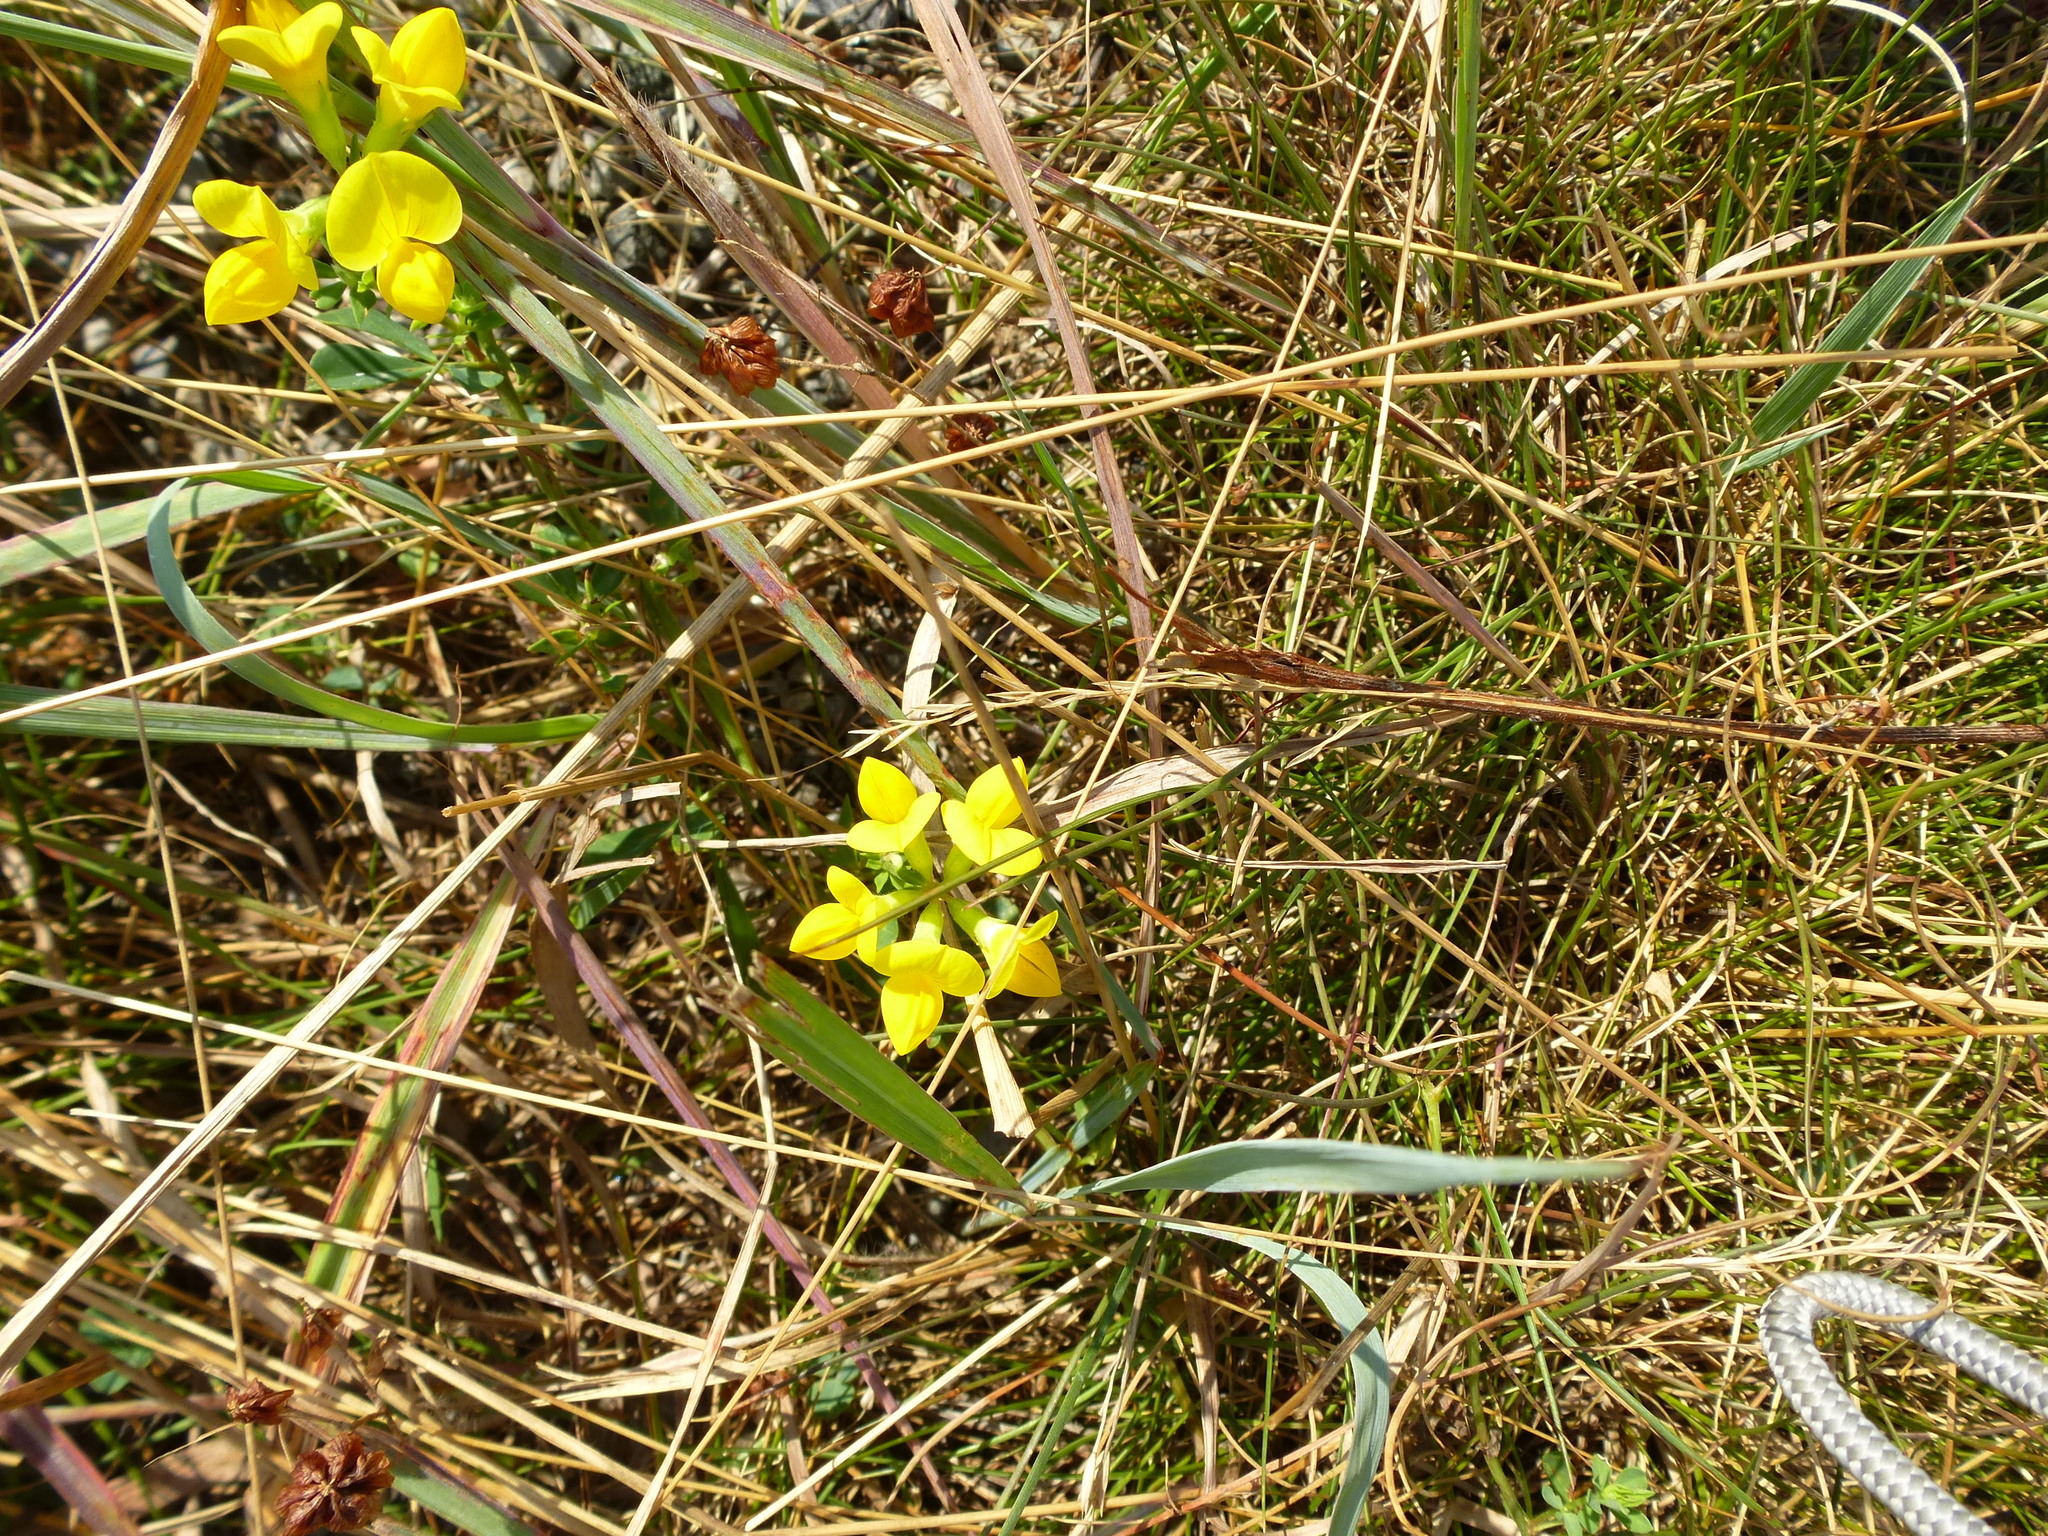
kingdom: Plantae
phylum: Tracheophyta
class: Magnoliopsida
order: Fabales
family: Fabaceae
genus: Lotus
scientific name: Lotus corniculatus
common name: Common bird's-foot-trefoil
